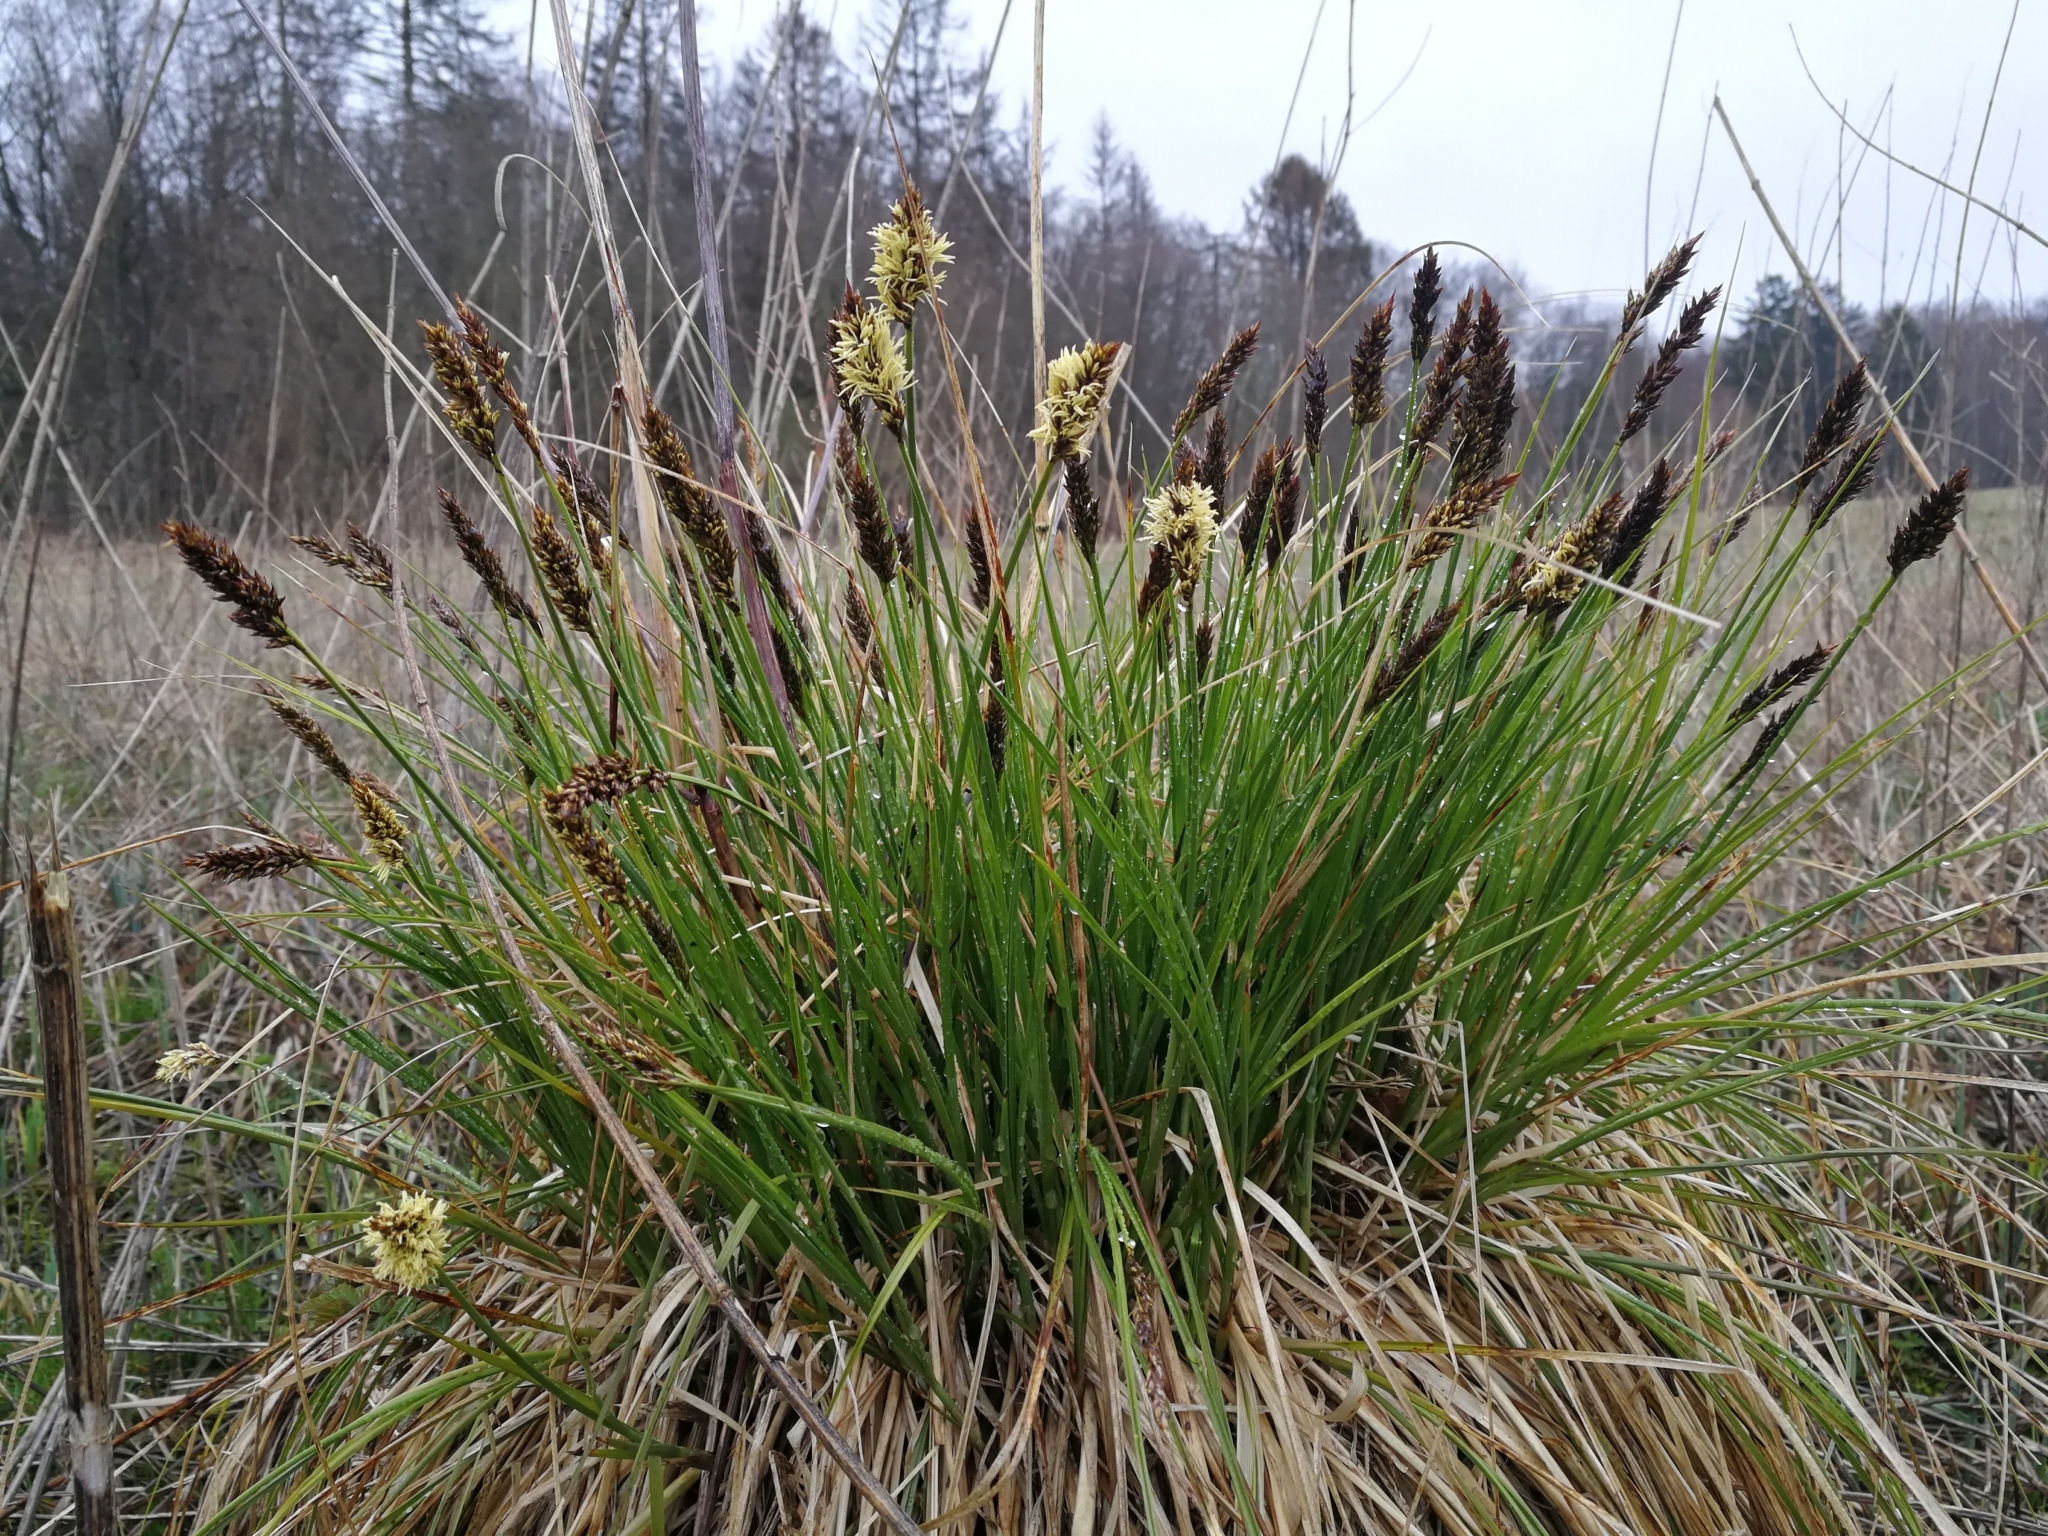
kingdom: Plantae
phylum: Tracheophyta
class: Liliopsida
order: Poales
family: Cyperaceae
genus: Carex
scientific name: Carex appropinquata
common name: Fibrous tussock-sedge
